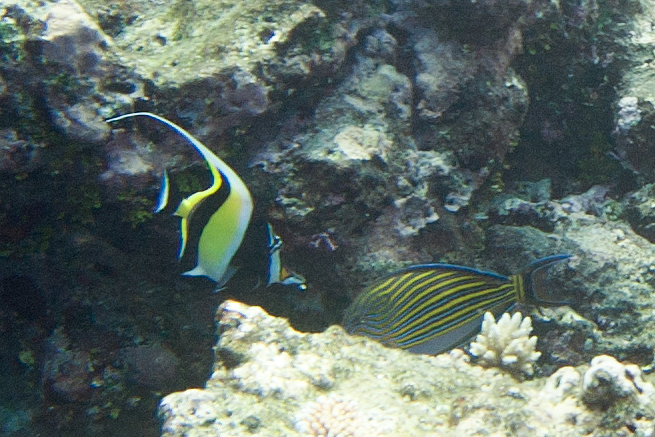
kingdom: Animalia
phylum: Chordata
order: Perciformes
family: Acanthuridae
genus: Acanthurus
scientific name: Acanthurus lineatus
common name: Striped surgeonfish
